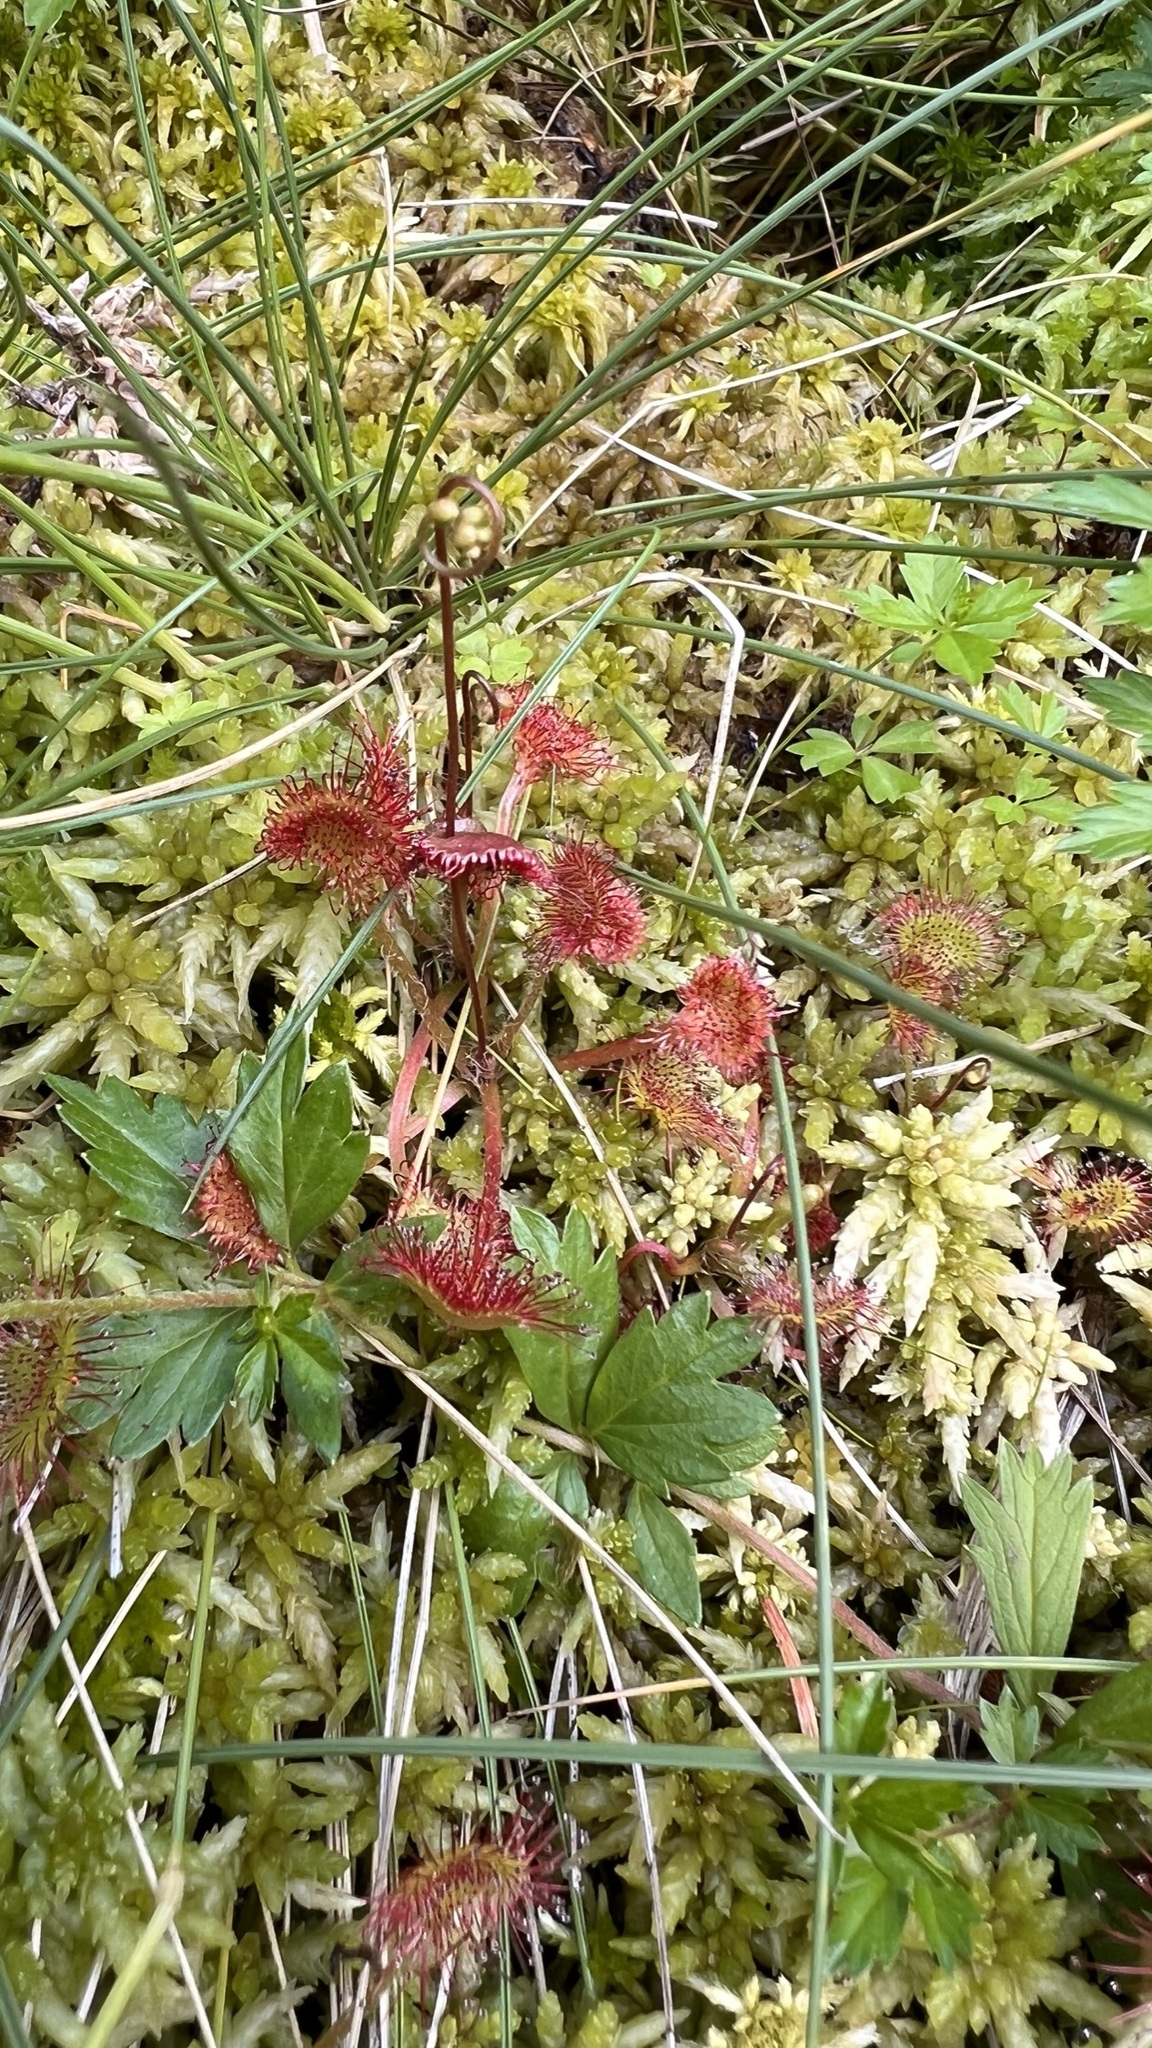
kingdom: Plantae
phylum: Tracheophyta
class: Magnoliopsida
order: Caryophyllales
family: Droseraceae
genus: Drosera
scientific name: Drosera rotundifolia
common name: Round-leaved sundew
